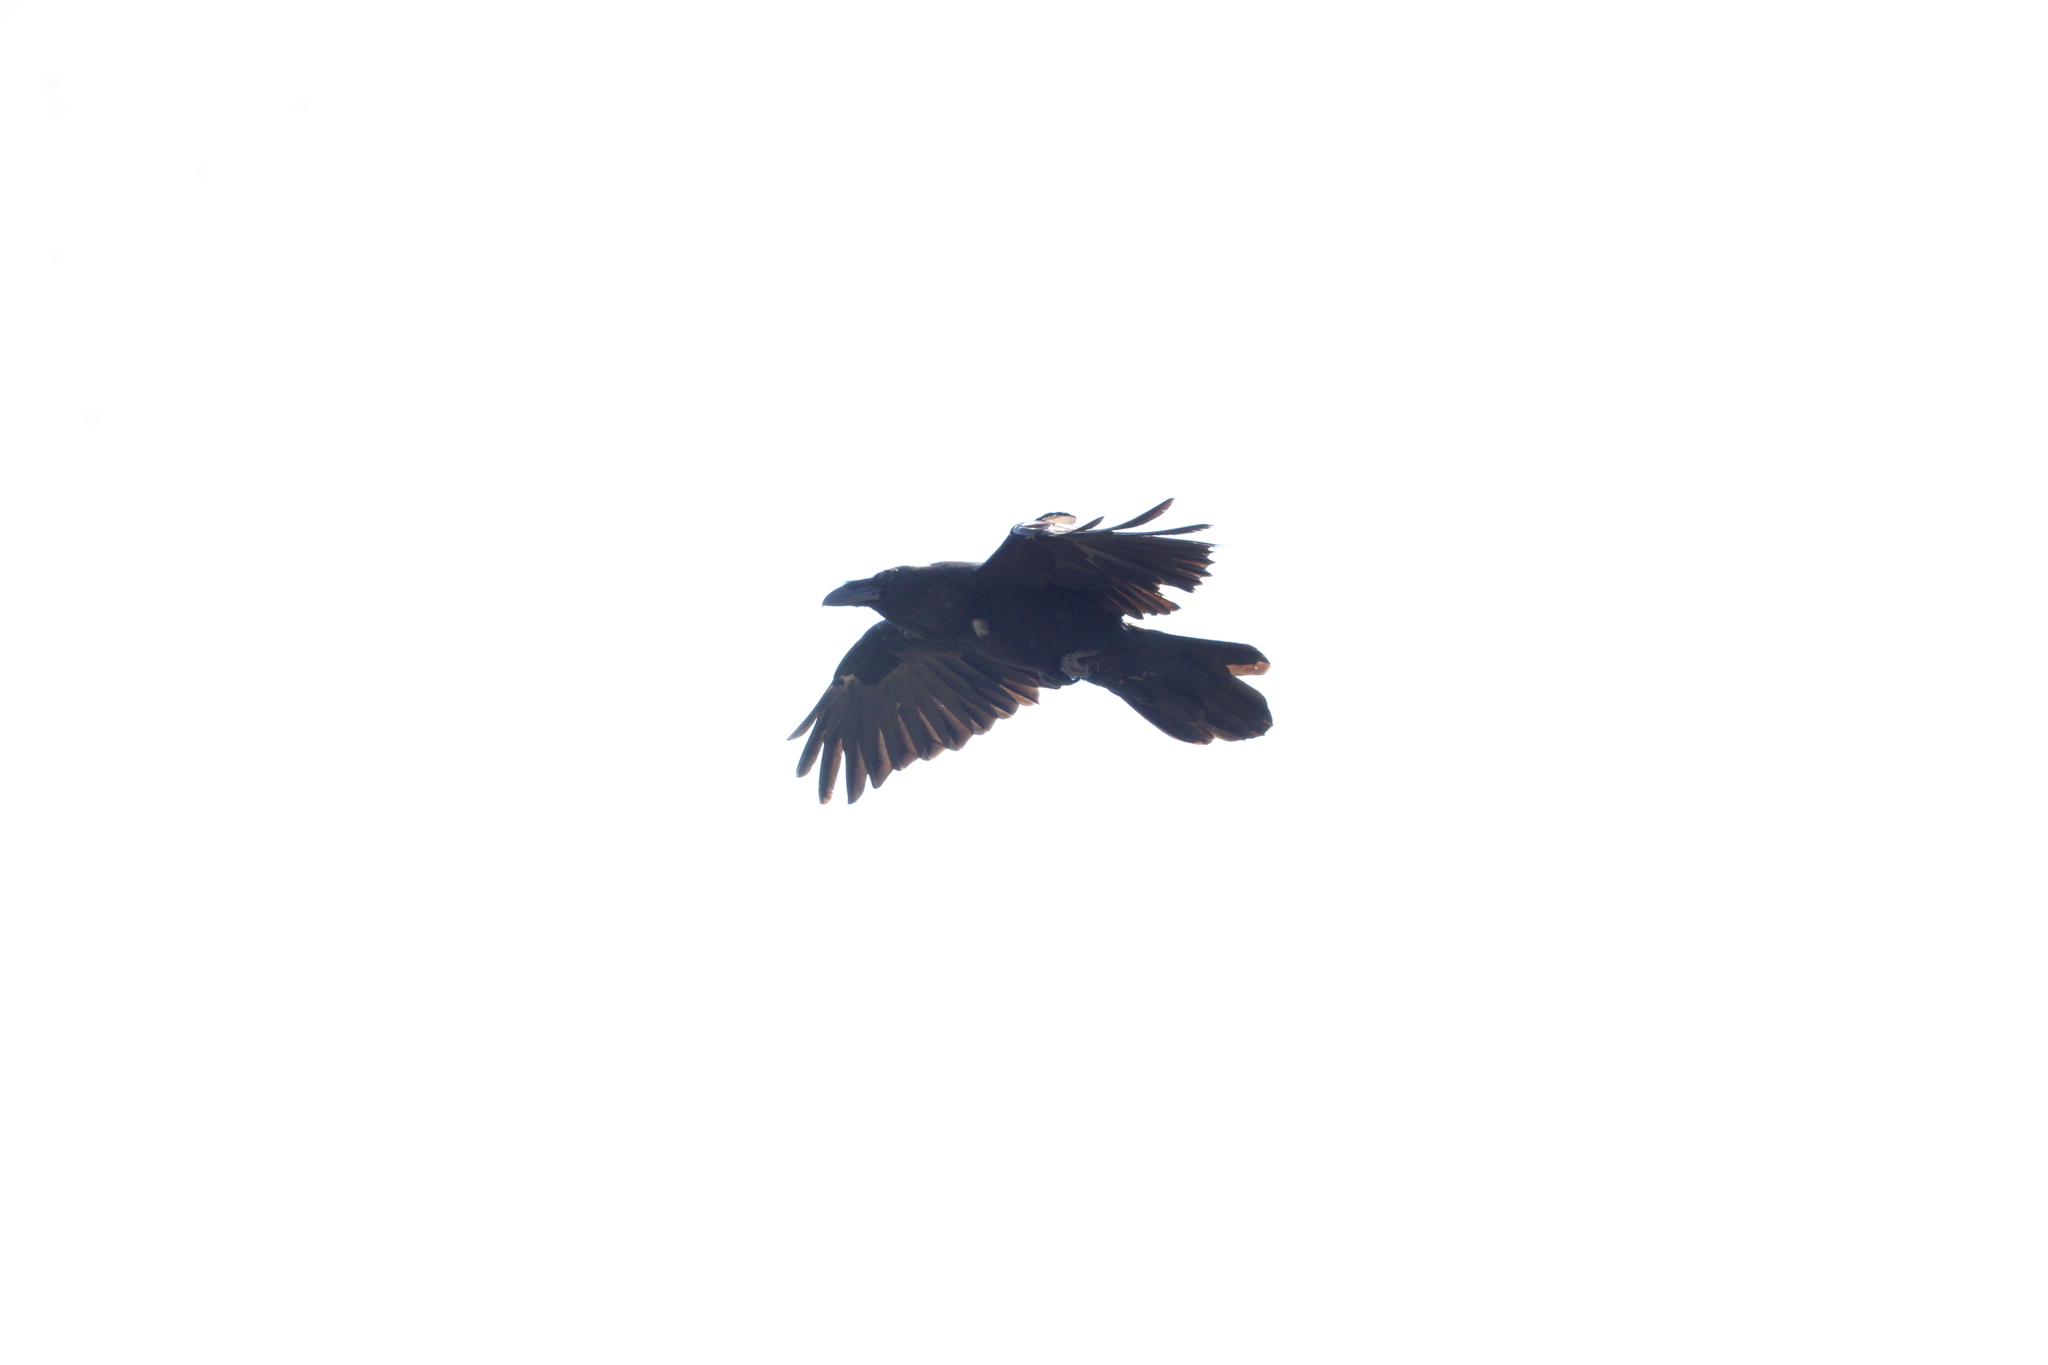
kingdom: Animalia
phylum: Chordata
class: Aves
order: Passeriformes
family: Corvidae
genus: Corvus
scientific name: Corvus corax
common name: Common raven
